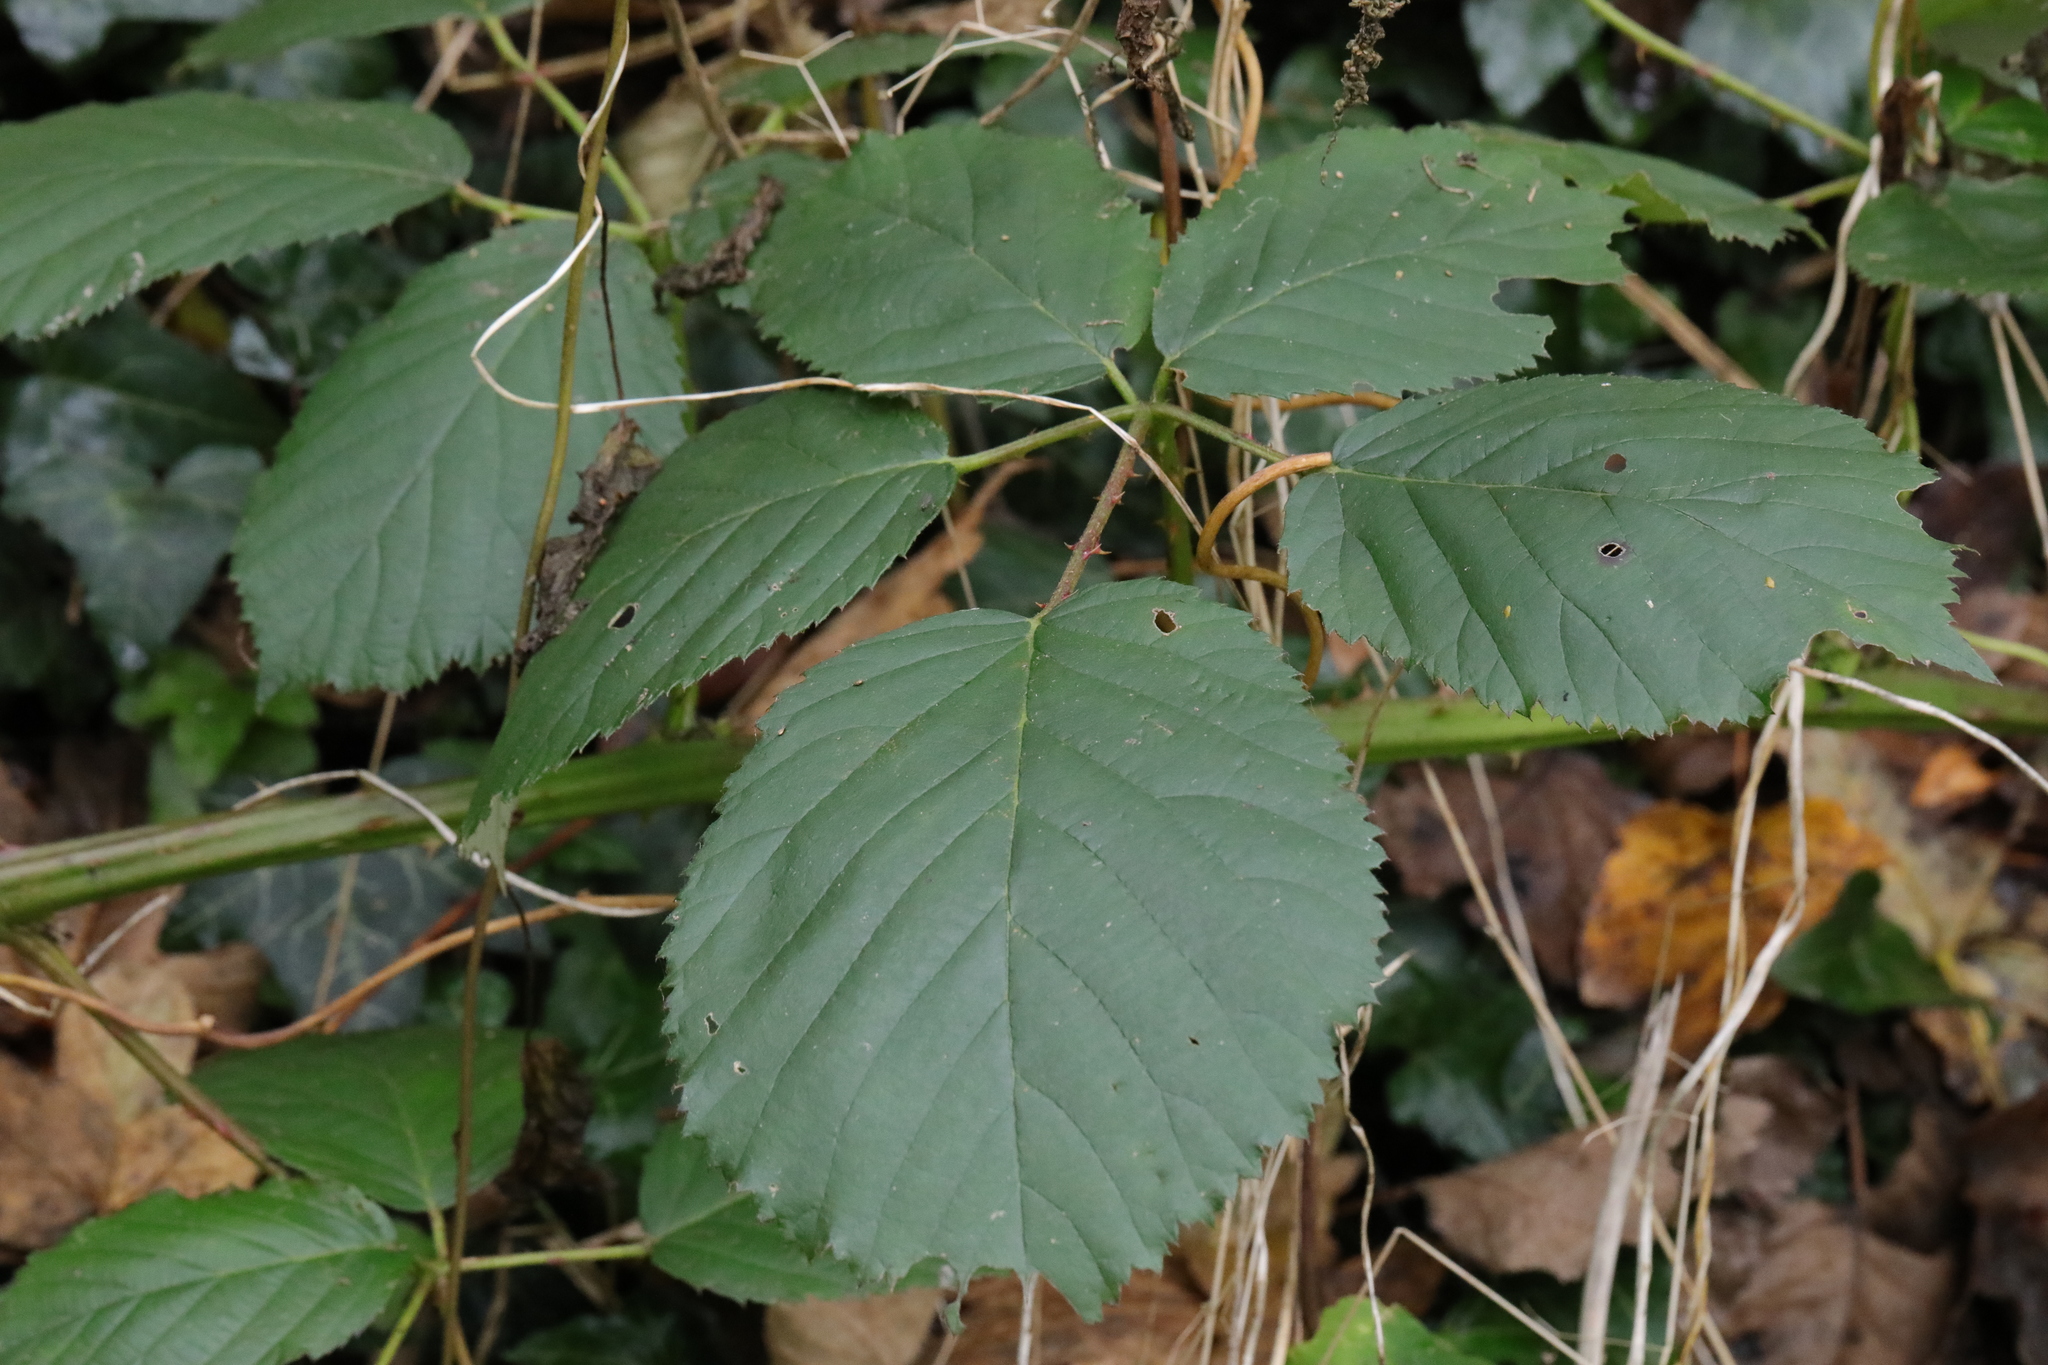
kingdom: Plantae
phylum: Tracheophyta
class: Magnoliopsida
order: Rosales
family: Rosaceae
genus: Rubus
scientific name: Rubus armeniacus
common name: Himalayan blackberry
